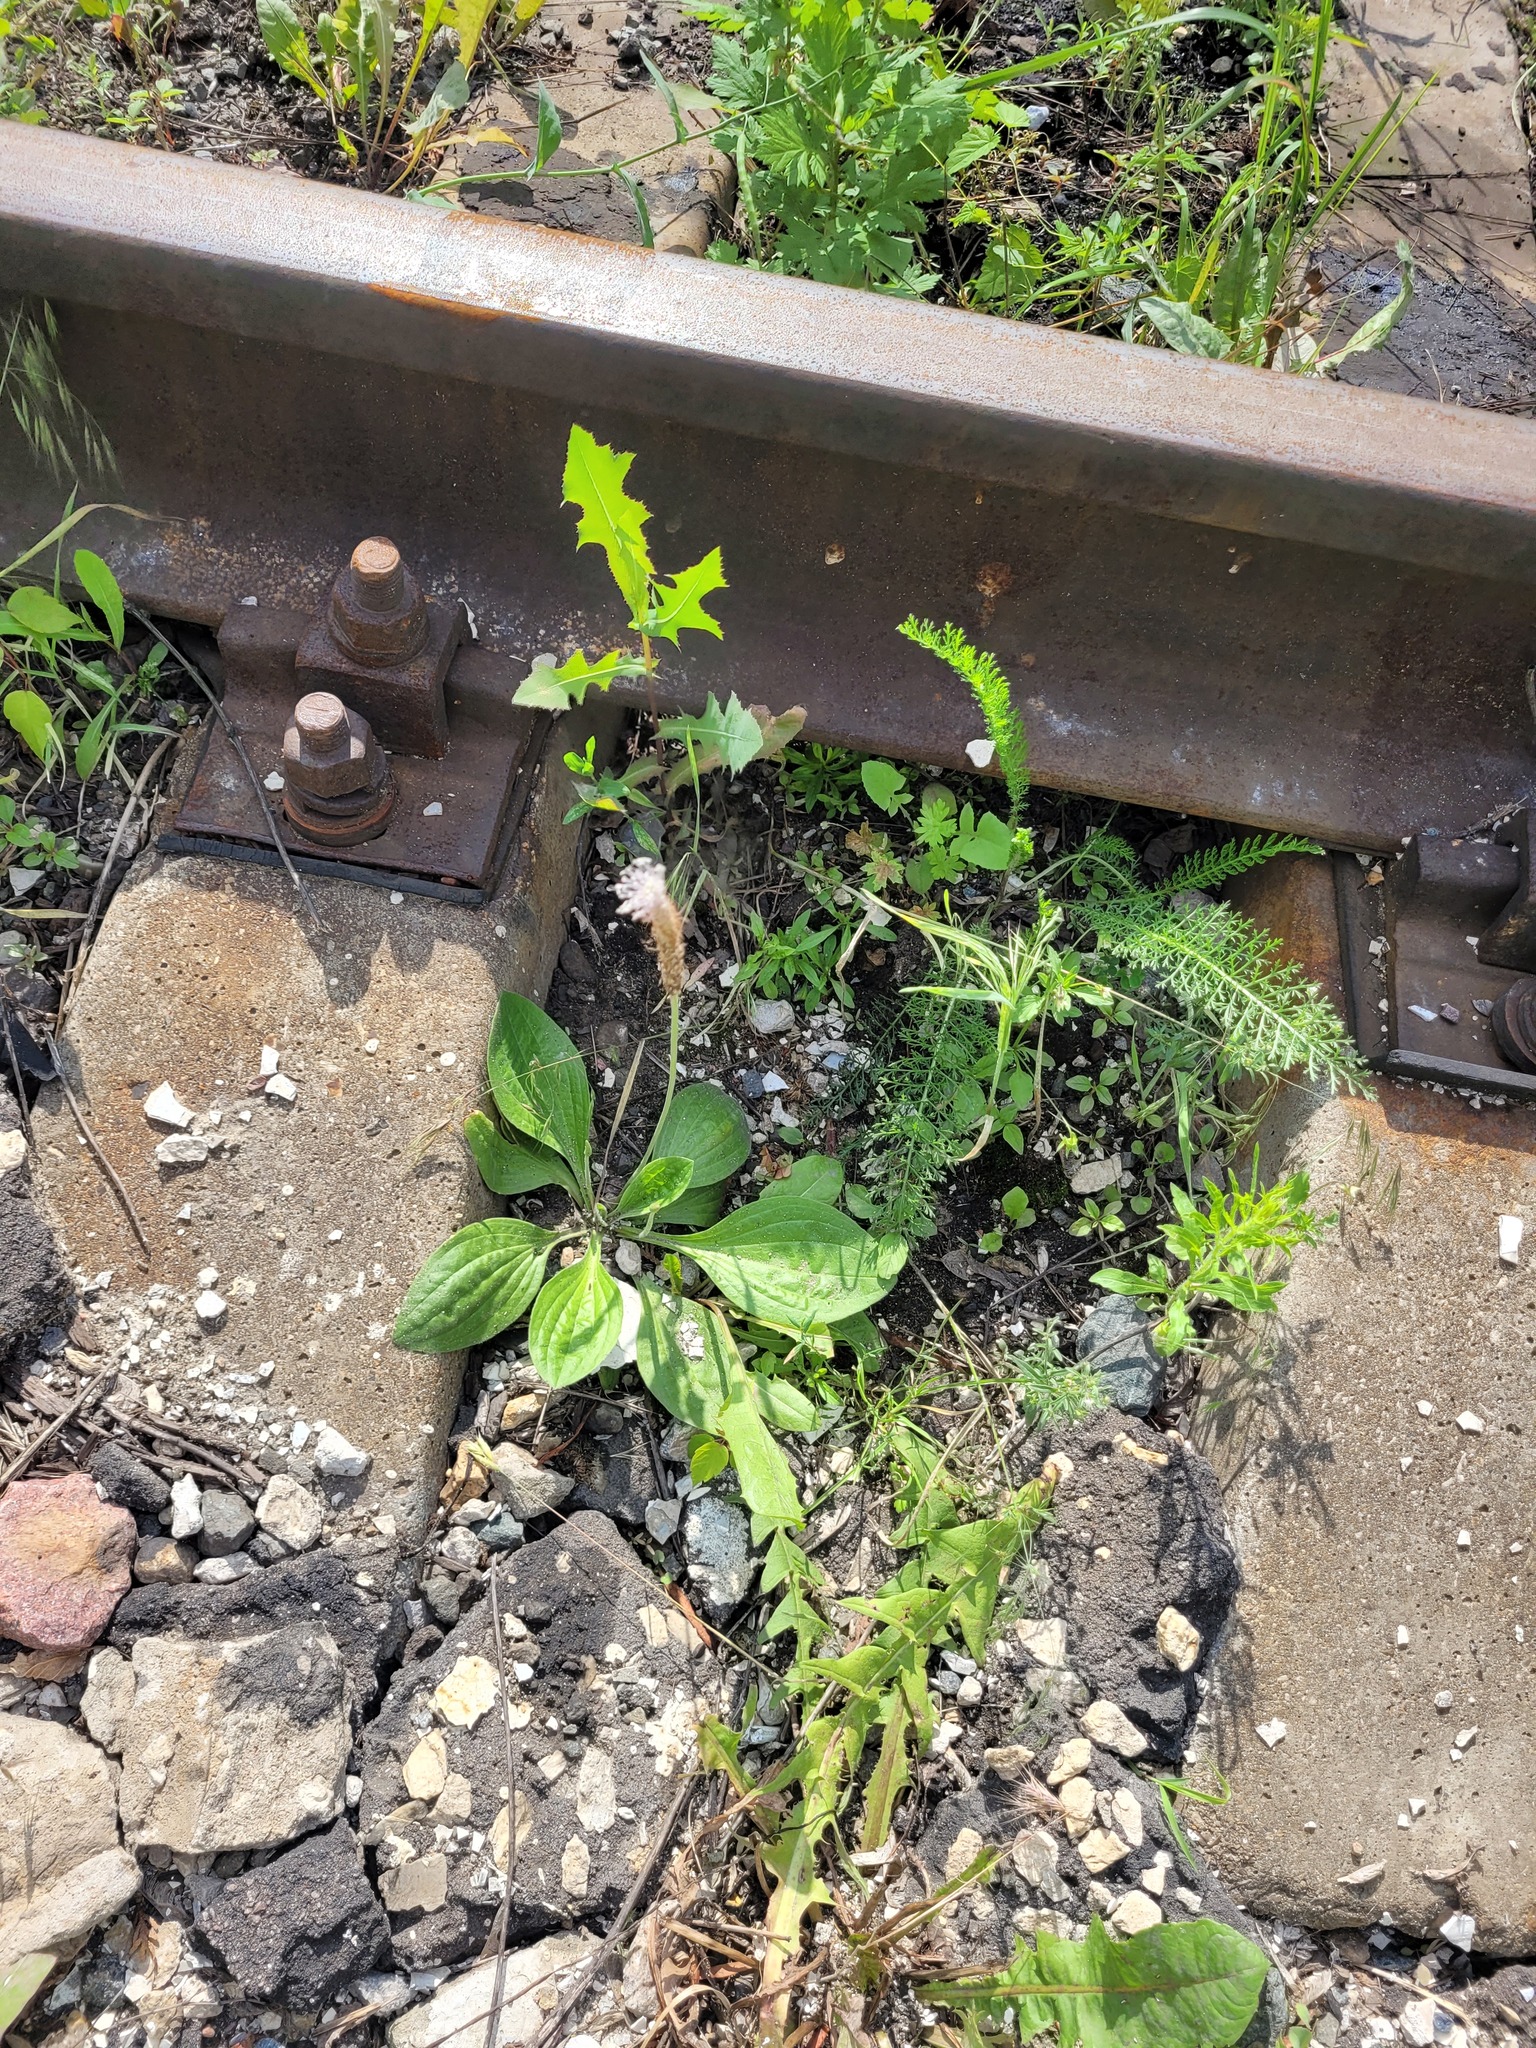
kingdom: Plantae
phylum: Tracheophyta
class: Magnoliopsida
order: Lamiales
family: Plantaginaceae
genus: Plantago
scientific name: Plantago media
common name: Hoary plantain
